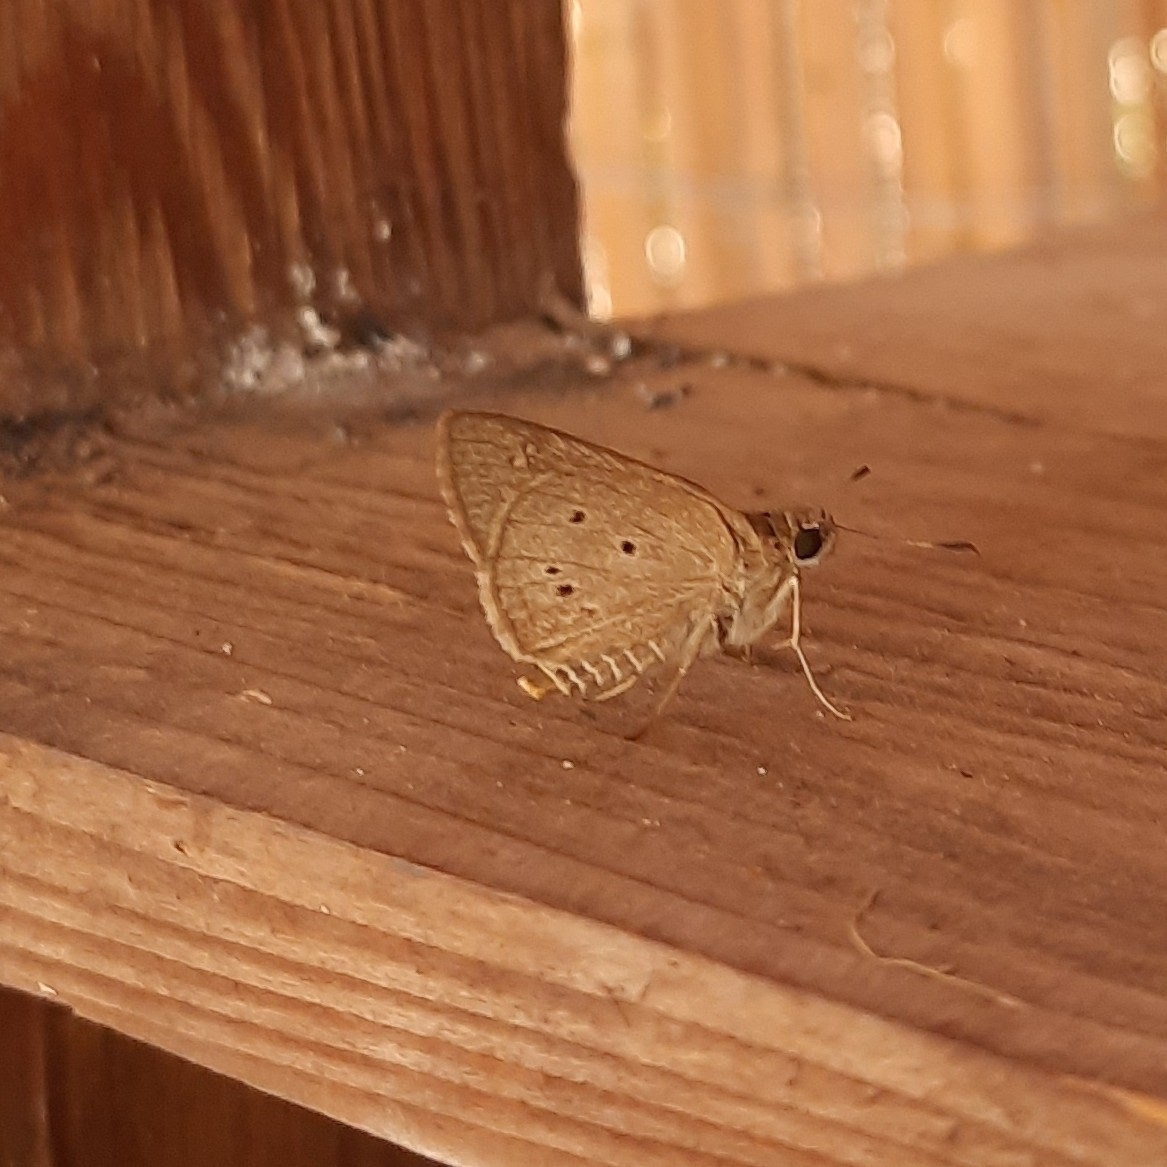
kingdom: Animalia
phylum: Arthropoda
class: Insecta
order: Lepidoptera
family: Hesperiidae
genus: Suastus
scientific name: Suastus gremius
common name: Indian palm bob
